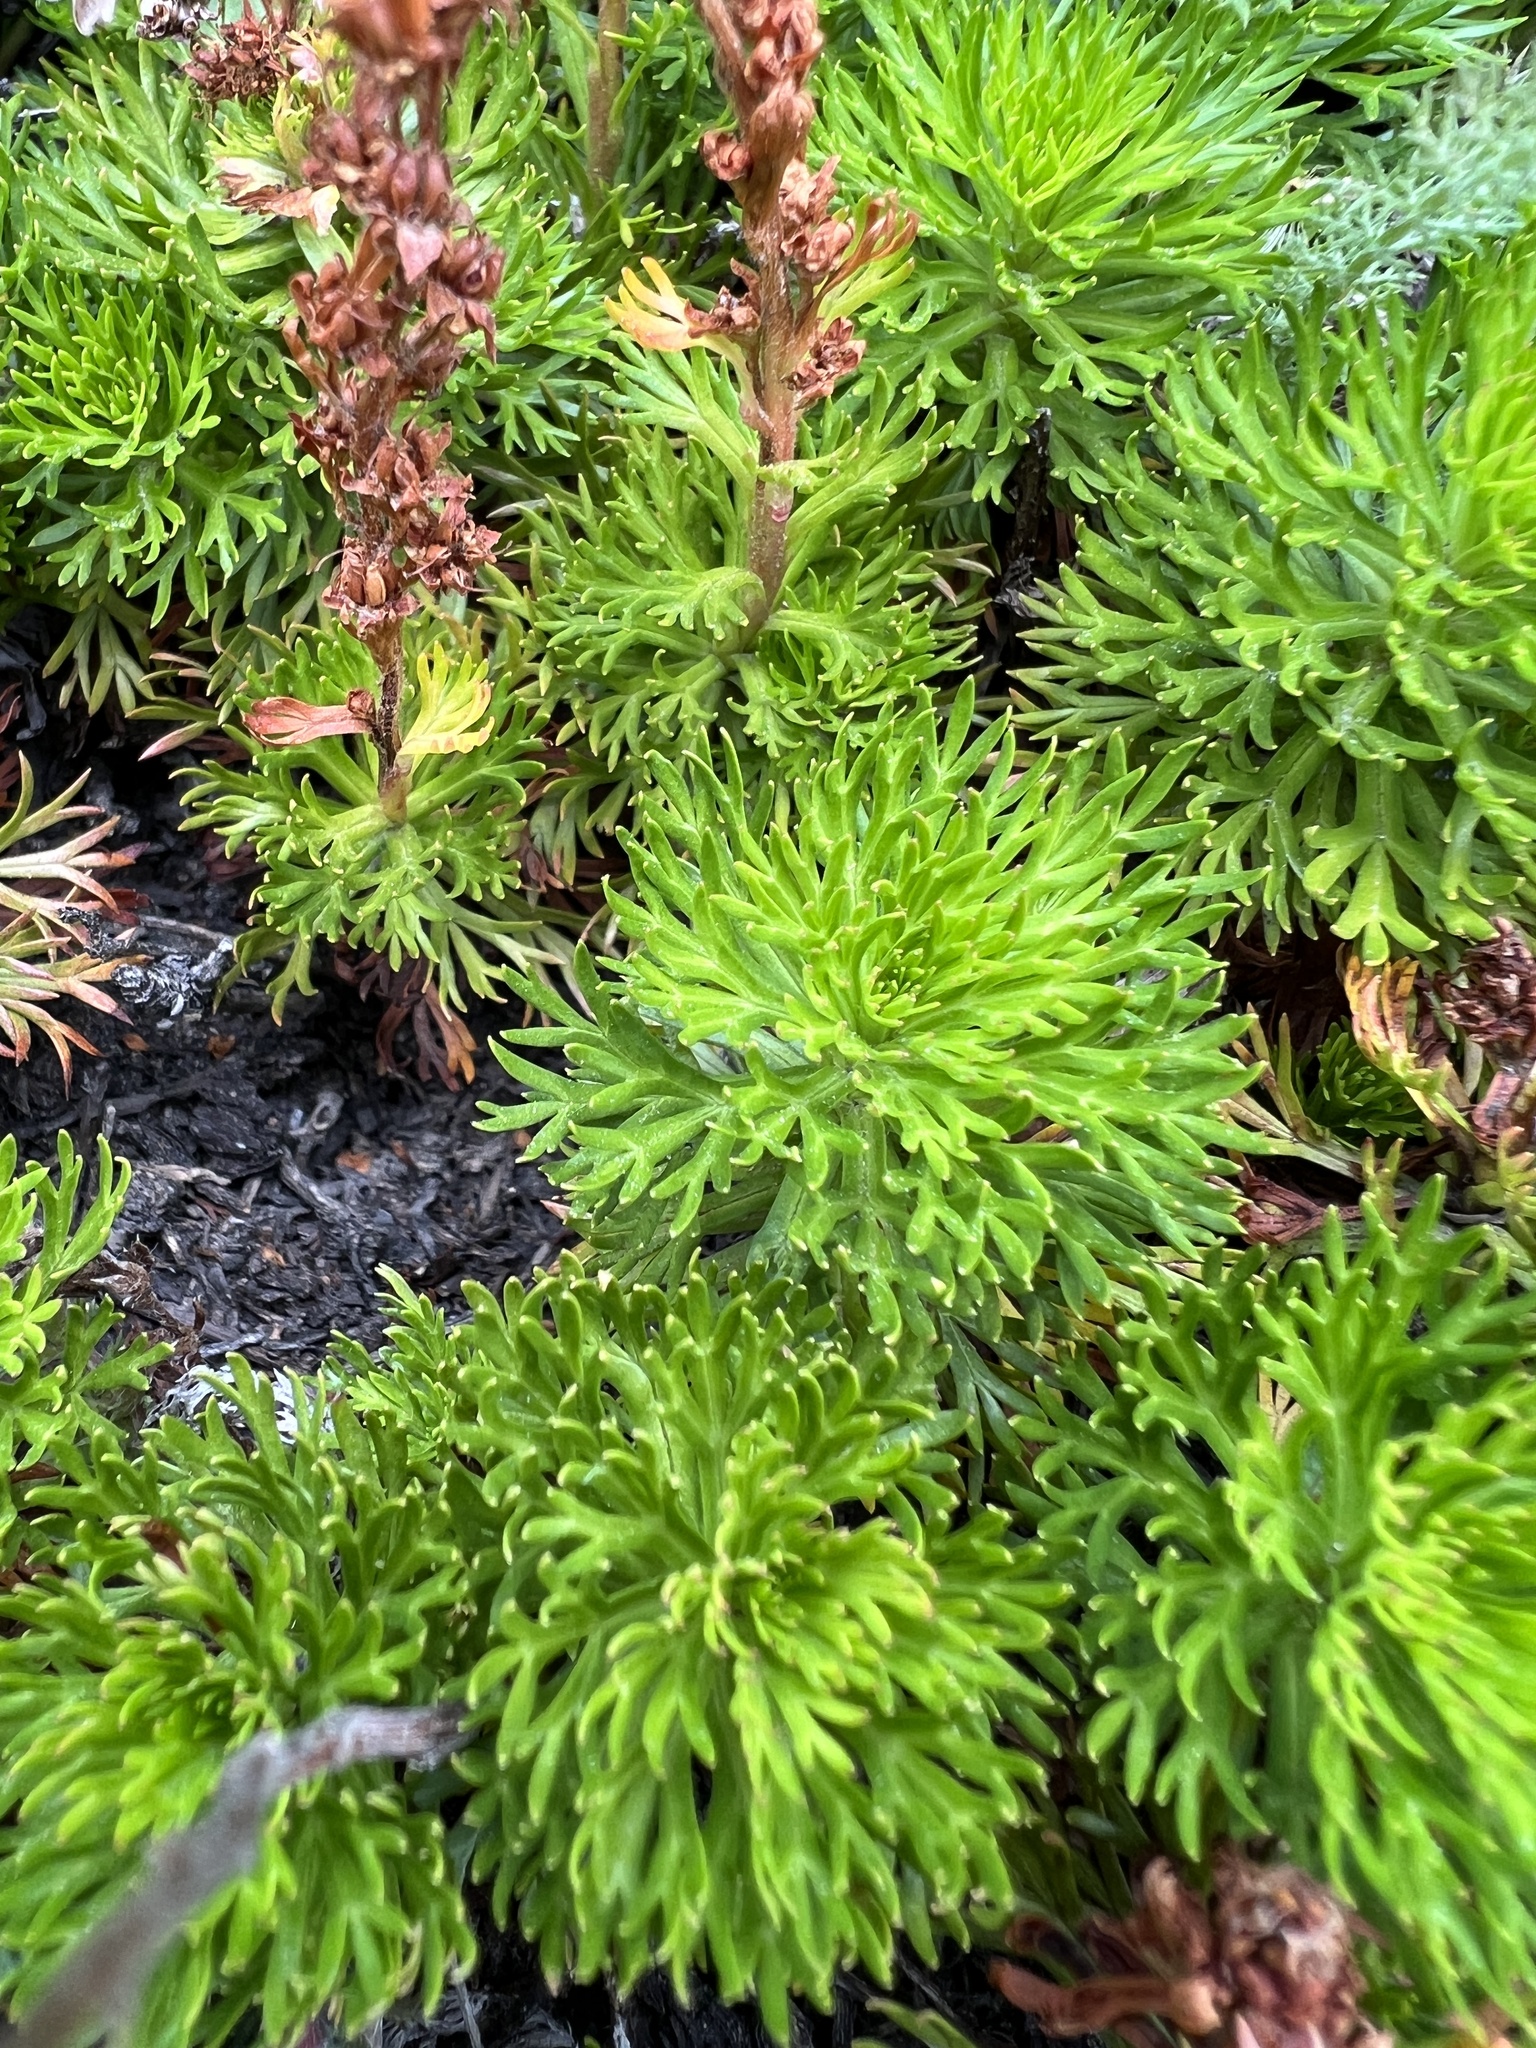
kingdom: Plantae
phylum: Tracheophyta
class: Magnoliopsida
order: Rosales
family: Rosaceae
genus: Luetkea
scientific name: Luetkea pectinata
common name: Partridgefoot
